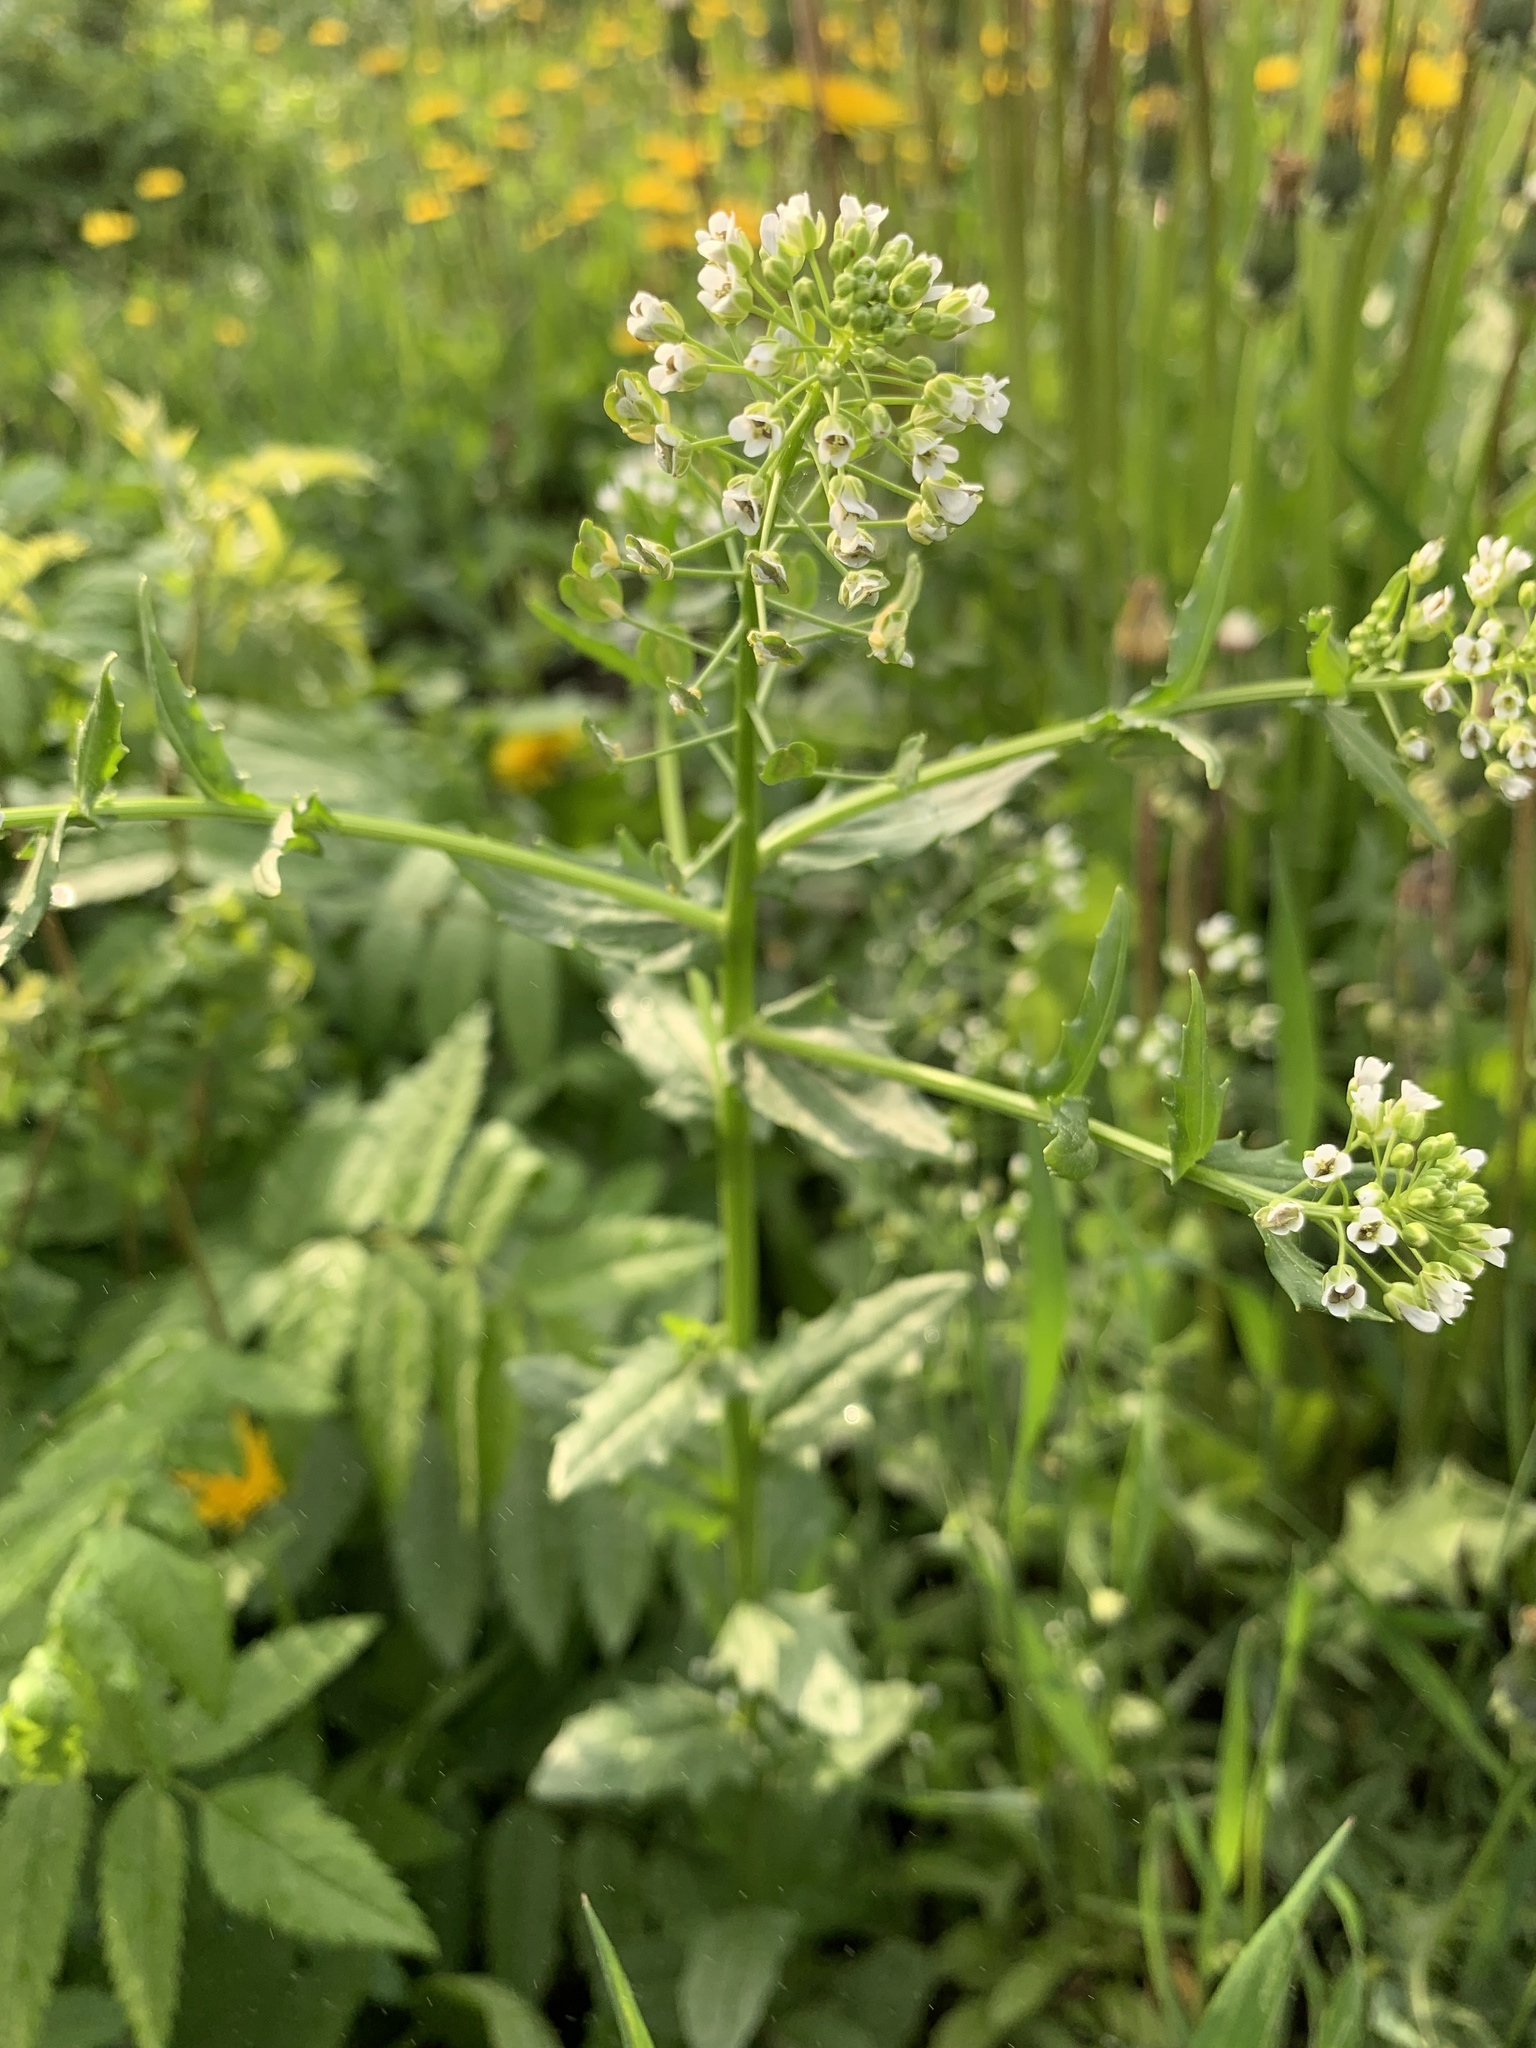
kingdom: Plantae
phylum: Tracheophyta
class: Magnoliopsida
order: Brassicales
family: Brassicaceae
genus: Thlaspi
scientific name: Thlaspi arvense
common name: Field pennycress
